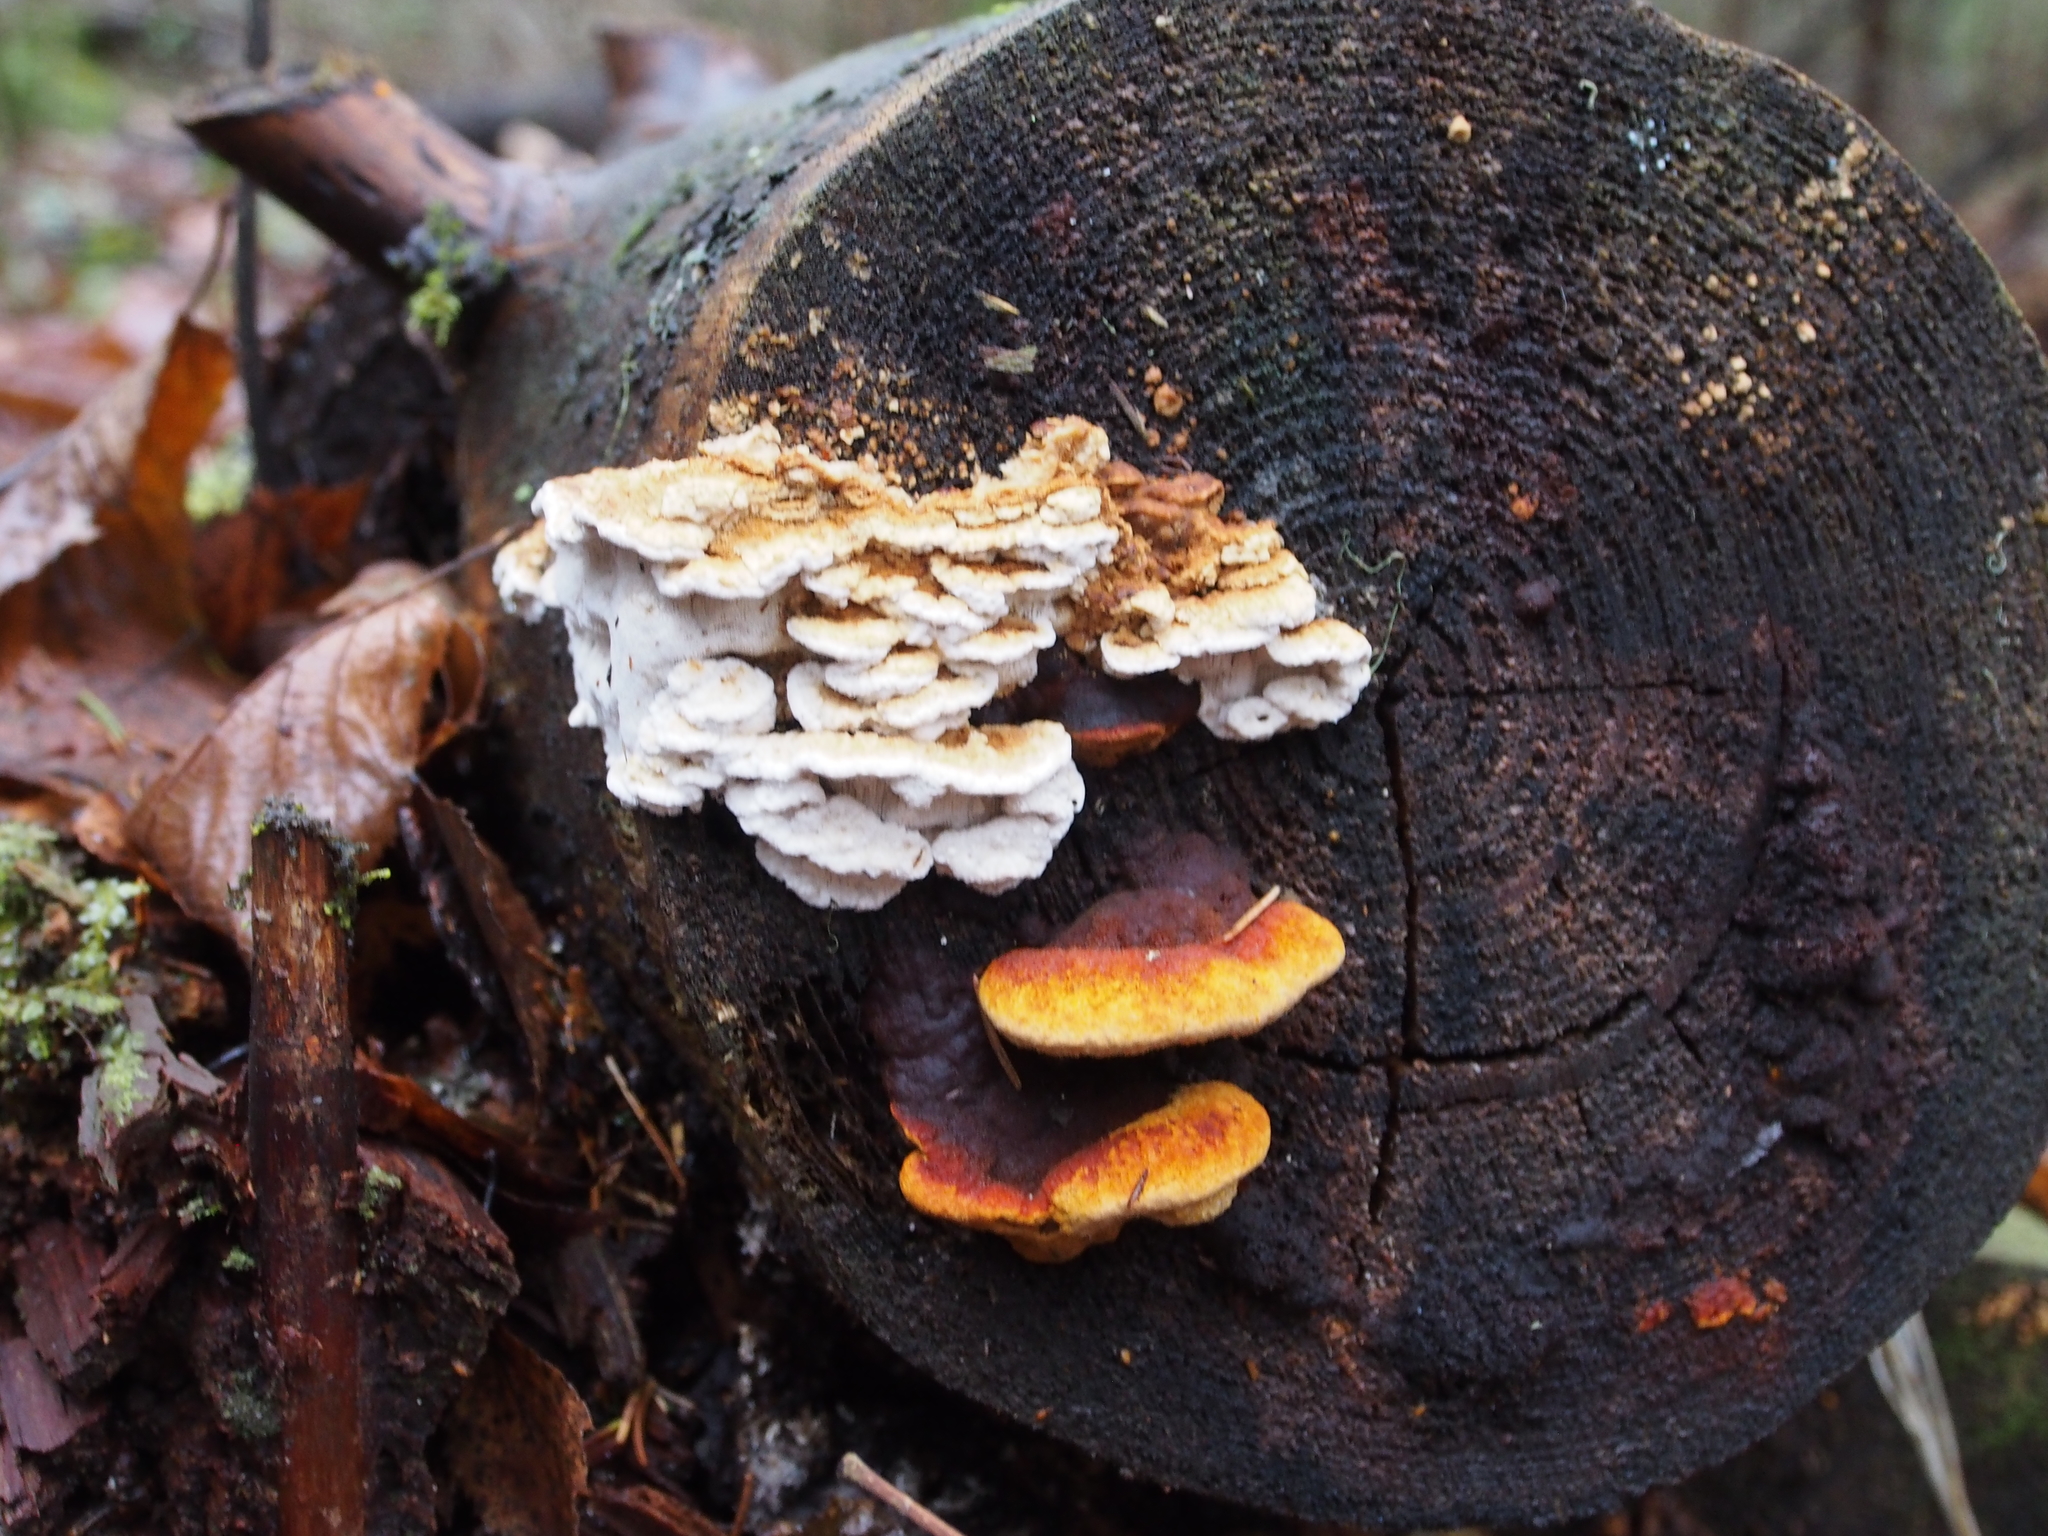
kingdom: Fungi
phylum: Basidiomycota
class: Agaricomycetes
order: Gloeophyllales
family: Gloeophyllaceae
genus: Gloeophyllum
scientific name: Gloeophyllum odoratum
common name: Anise mazegill
